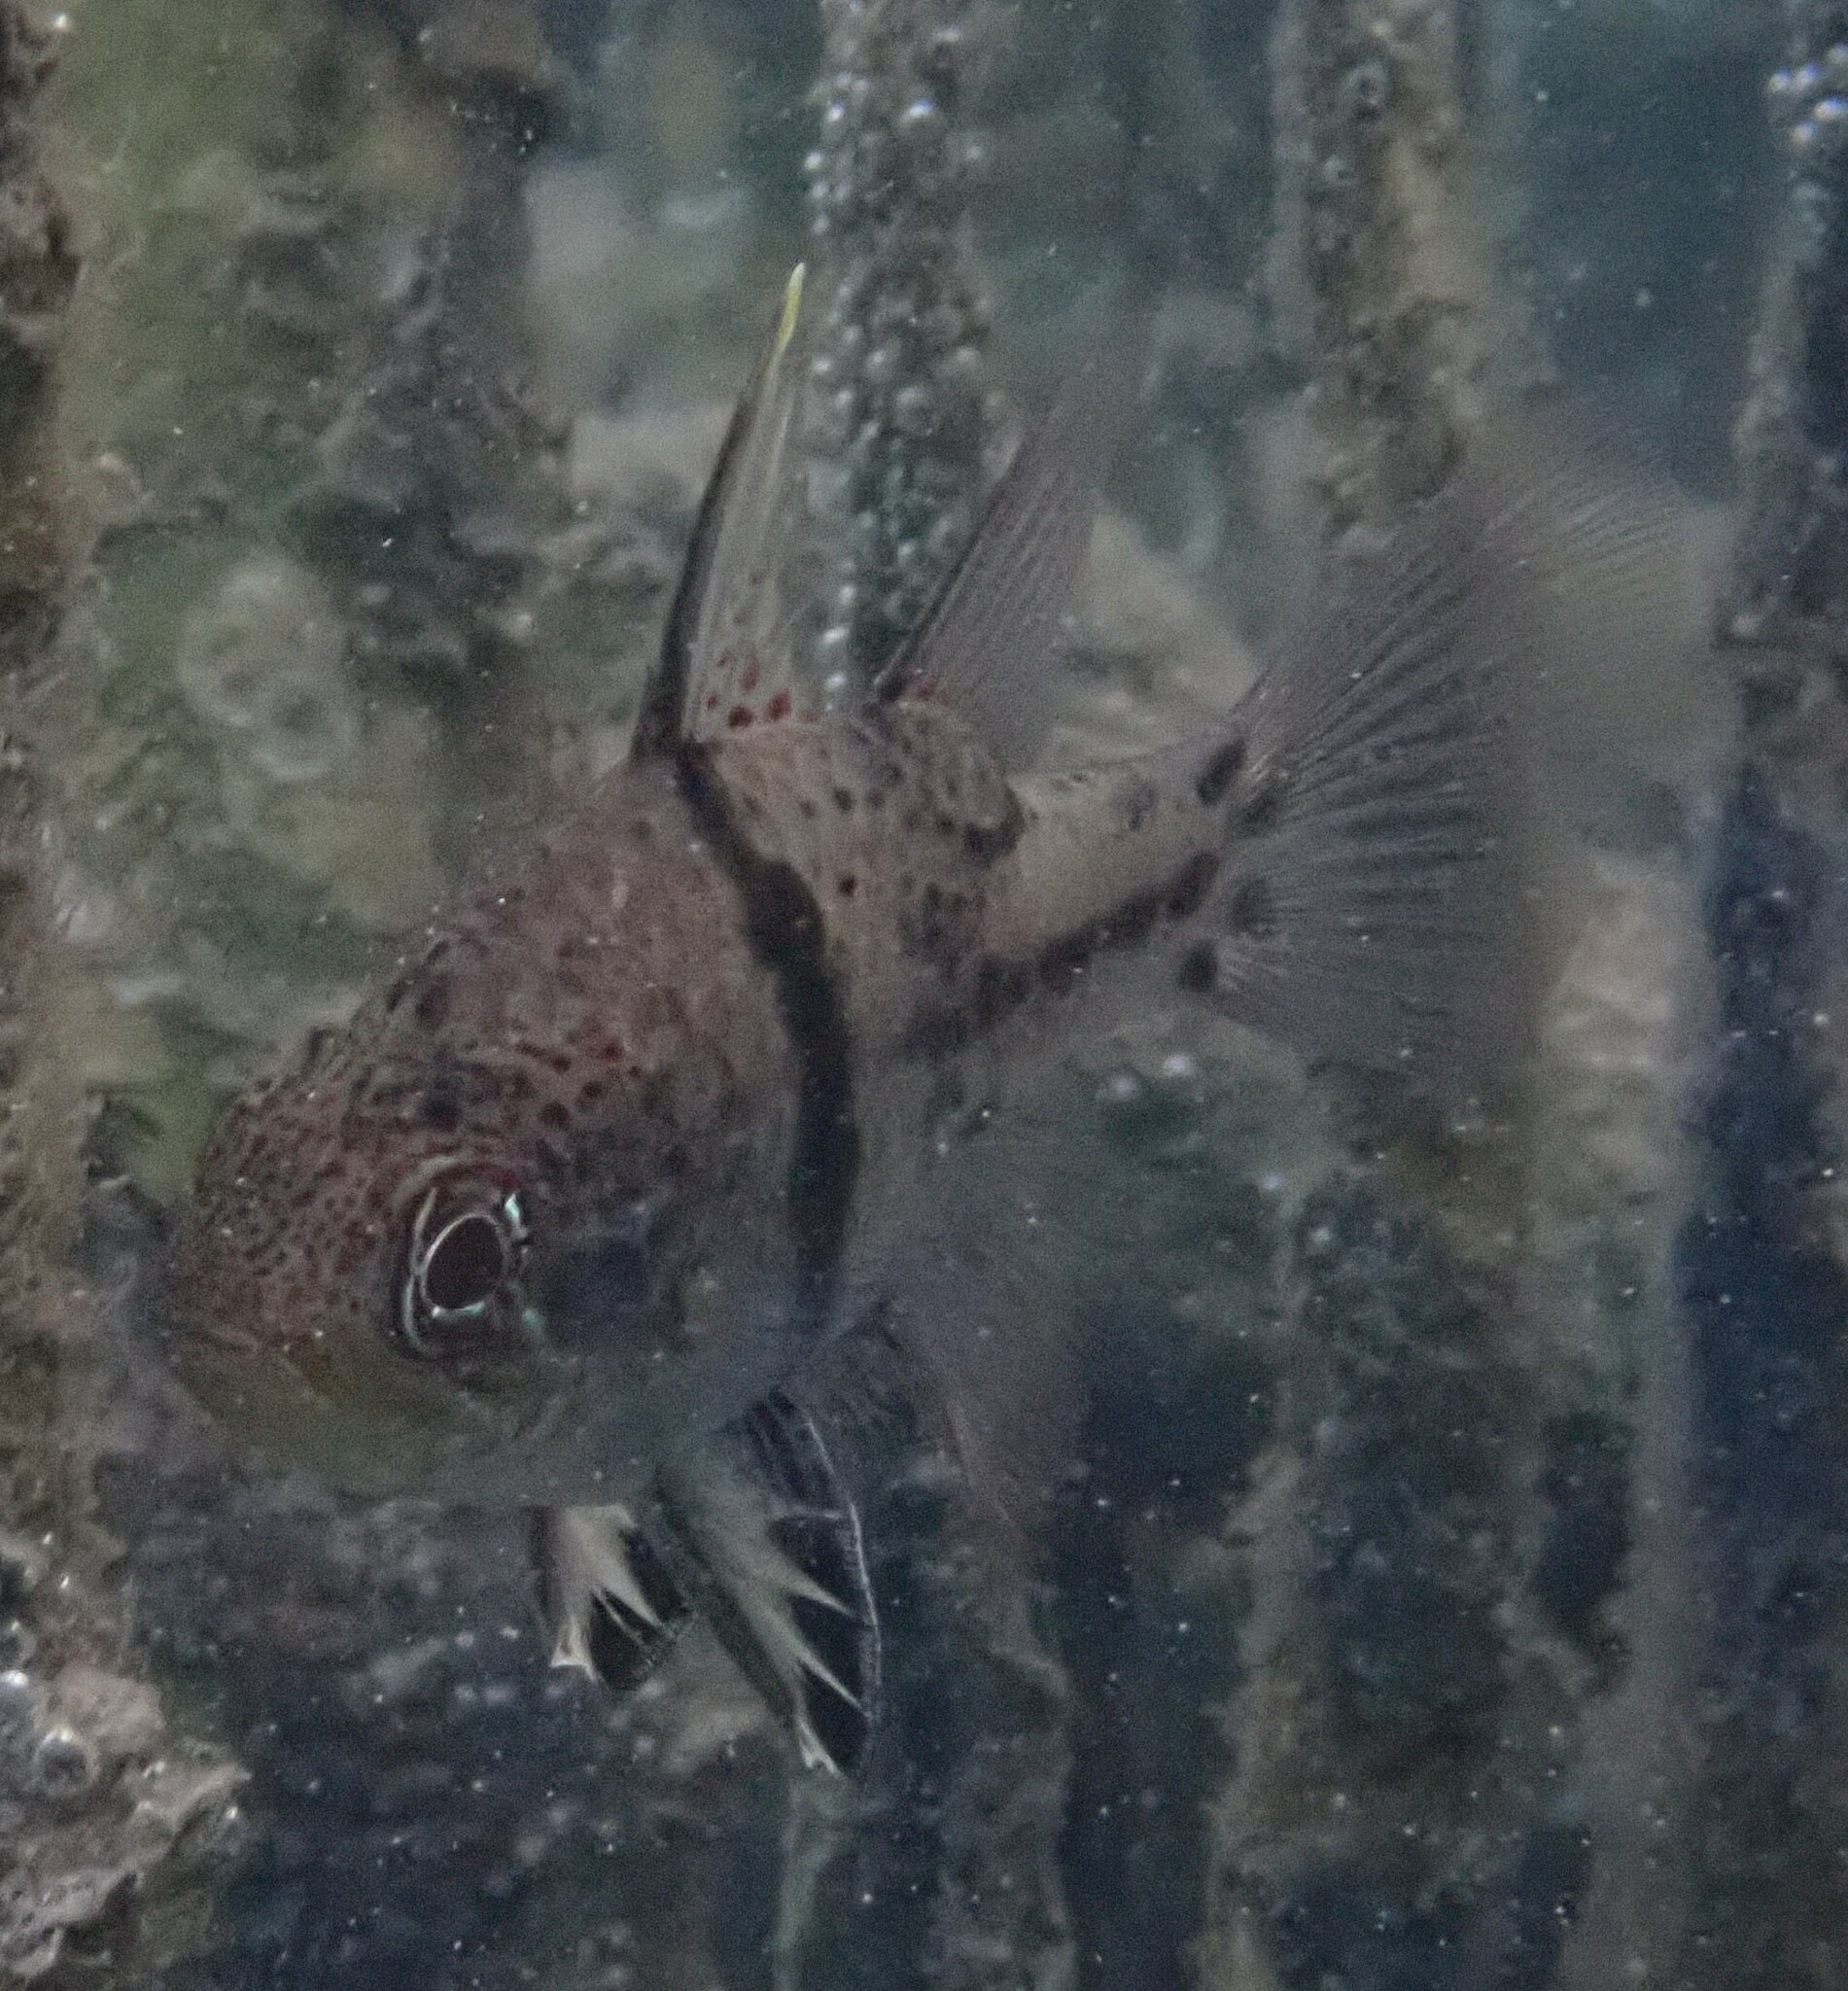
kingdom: Animalia
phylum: Chordata
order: Perciformes
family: Apogonidae
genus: Sphaeramia
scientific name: Sphaeramia orbicularis
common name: Polka-dot cardinalfish
